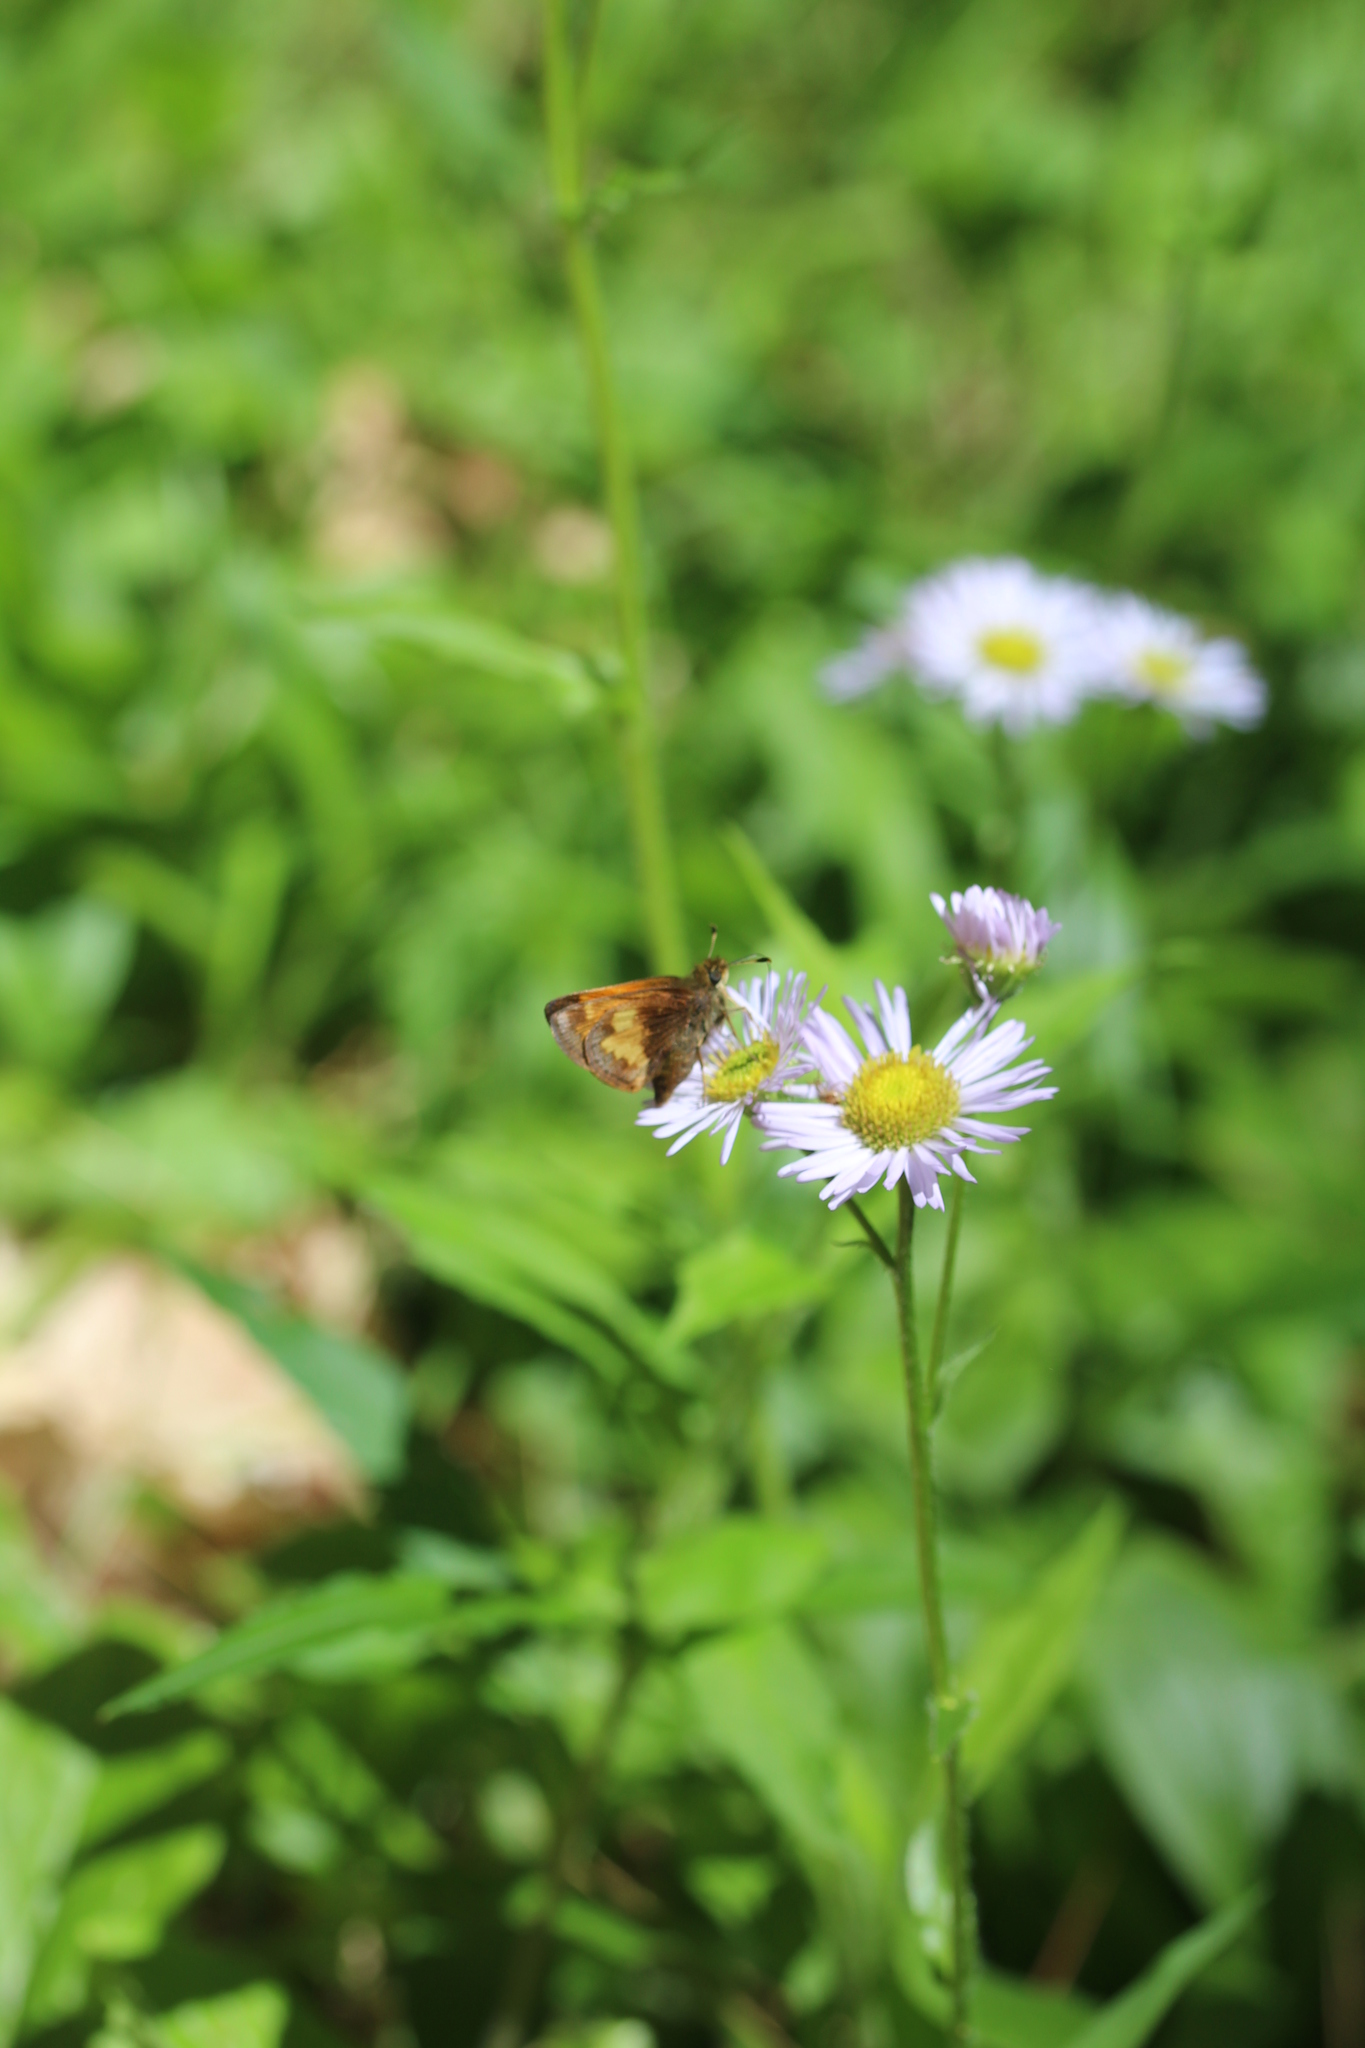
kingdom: Animalia
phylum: Arthropoda
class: Insecta
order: Lepidoptera
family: Hesperiidae
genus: Lon
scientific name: Lon hobomok
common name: Hobomok skipper
